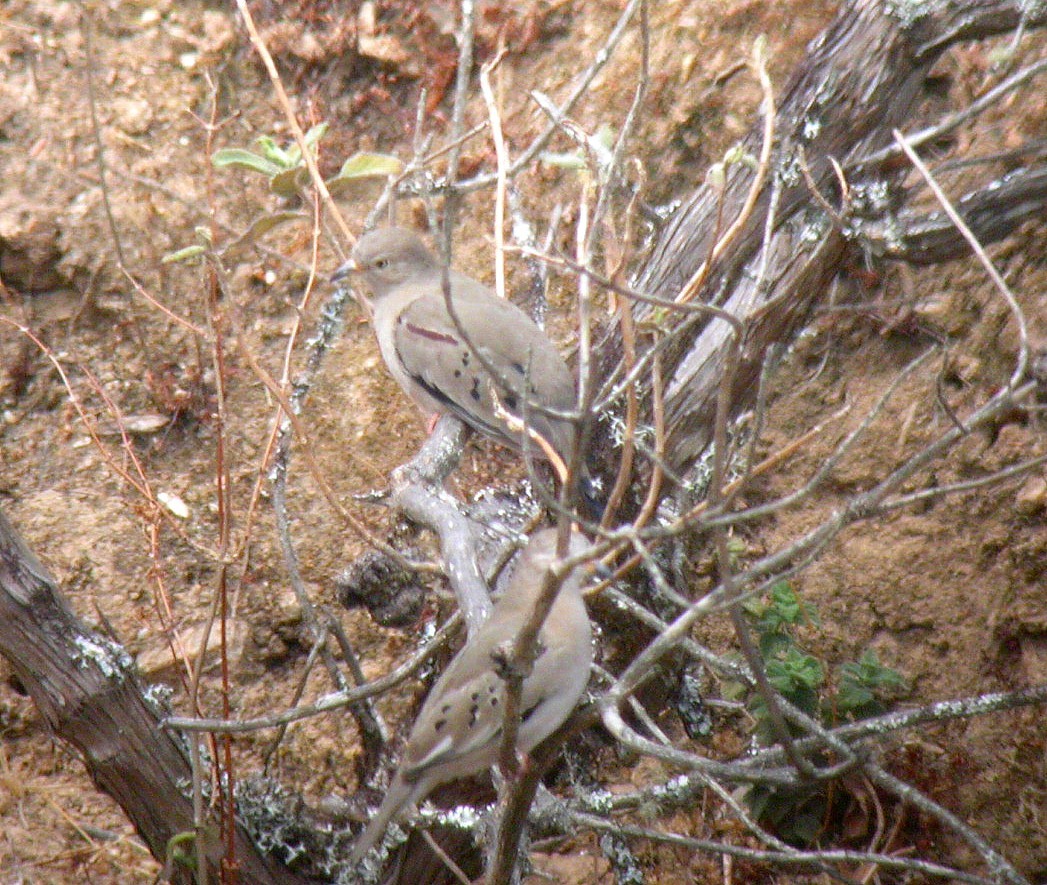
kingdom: Animalia
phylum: Chordata
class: Aves
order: Columbiformes
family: Columbidae
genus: Columbina
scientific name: Columbina cruziana
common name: Croaking ground dove
